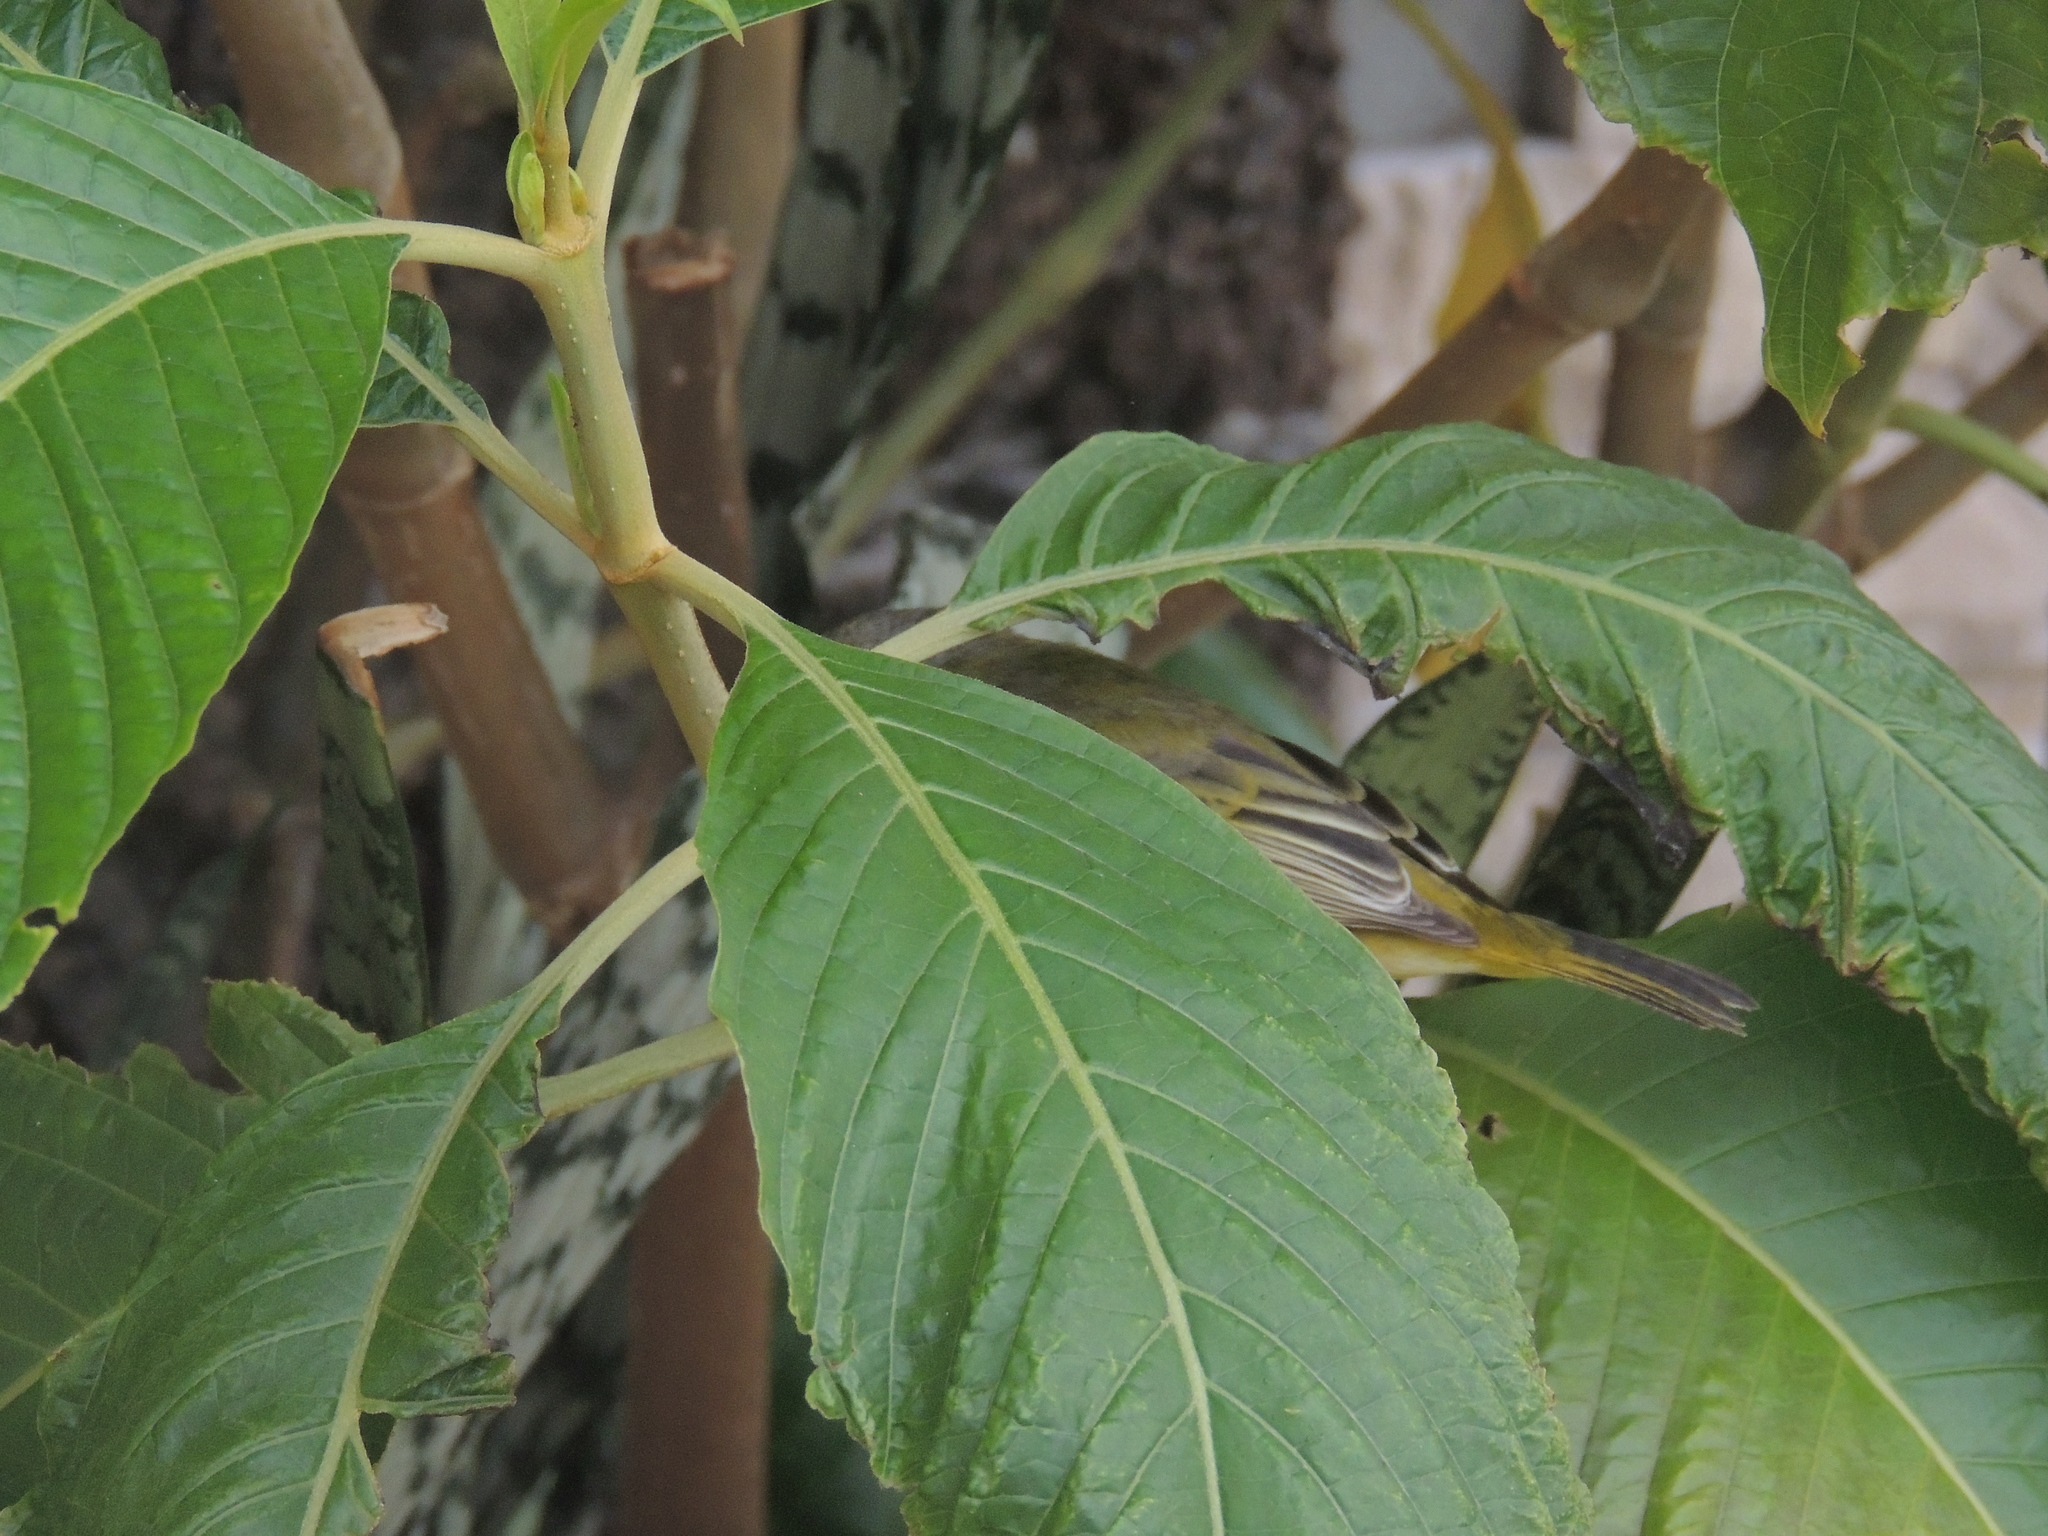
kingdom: Animalia
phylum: Chordata
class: Aves
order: Passeriformes
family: Parulidae
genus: Setophaga
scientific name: Setophaga petechia
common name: Yellow warbler
